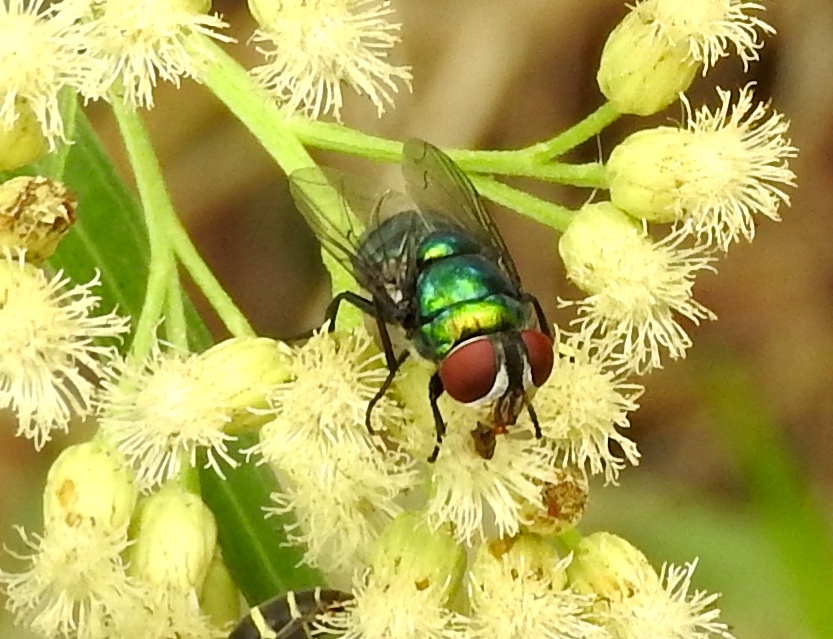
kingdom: Animalia
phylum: Arthropoda
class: Insecta
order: Diptera
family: Calliphoridae
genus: Chrysomya
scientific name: Chrysomya
